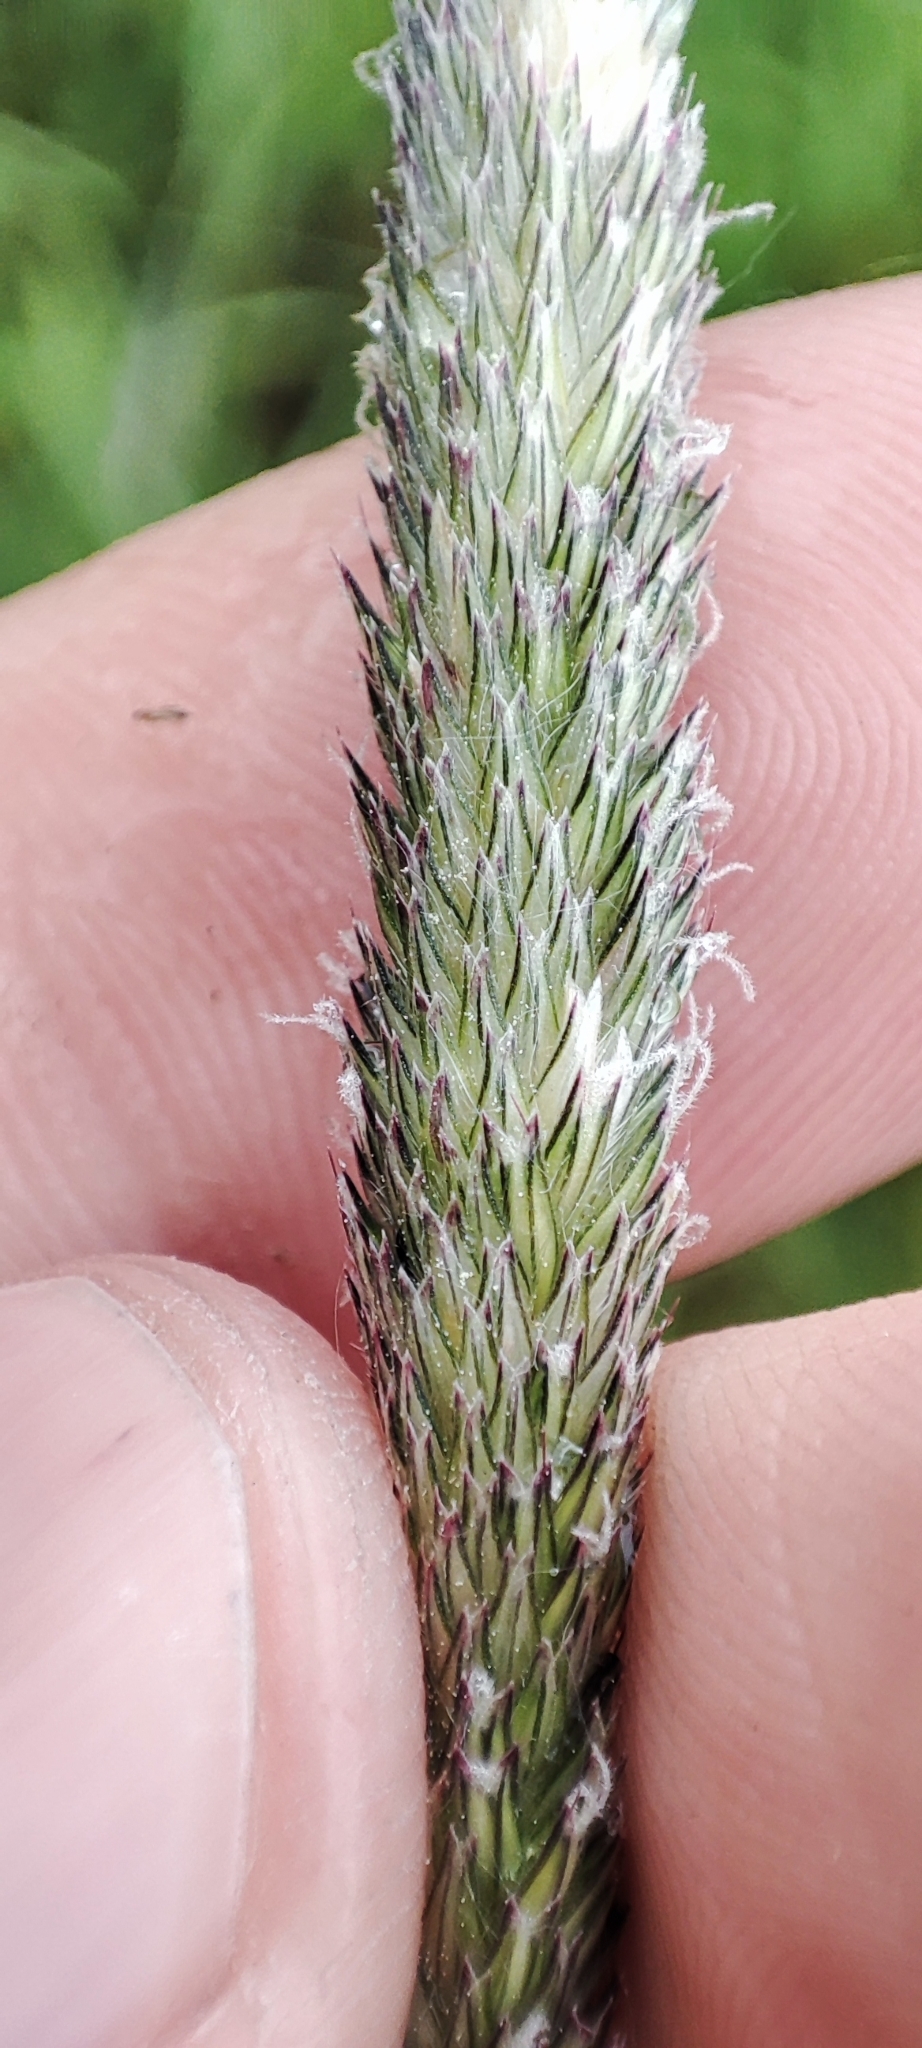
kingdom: Plantae
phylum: Tracheophyta
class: Liliopsida
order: Poales
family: Poaceae
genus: Alopecurus
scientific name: Alopecurus pratensis
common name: Meadow foxtail
